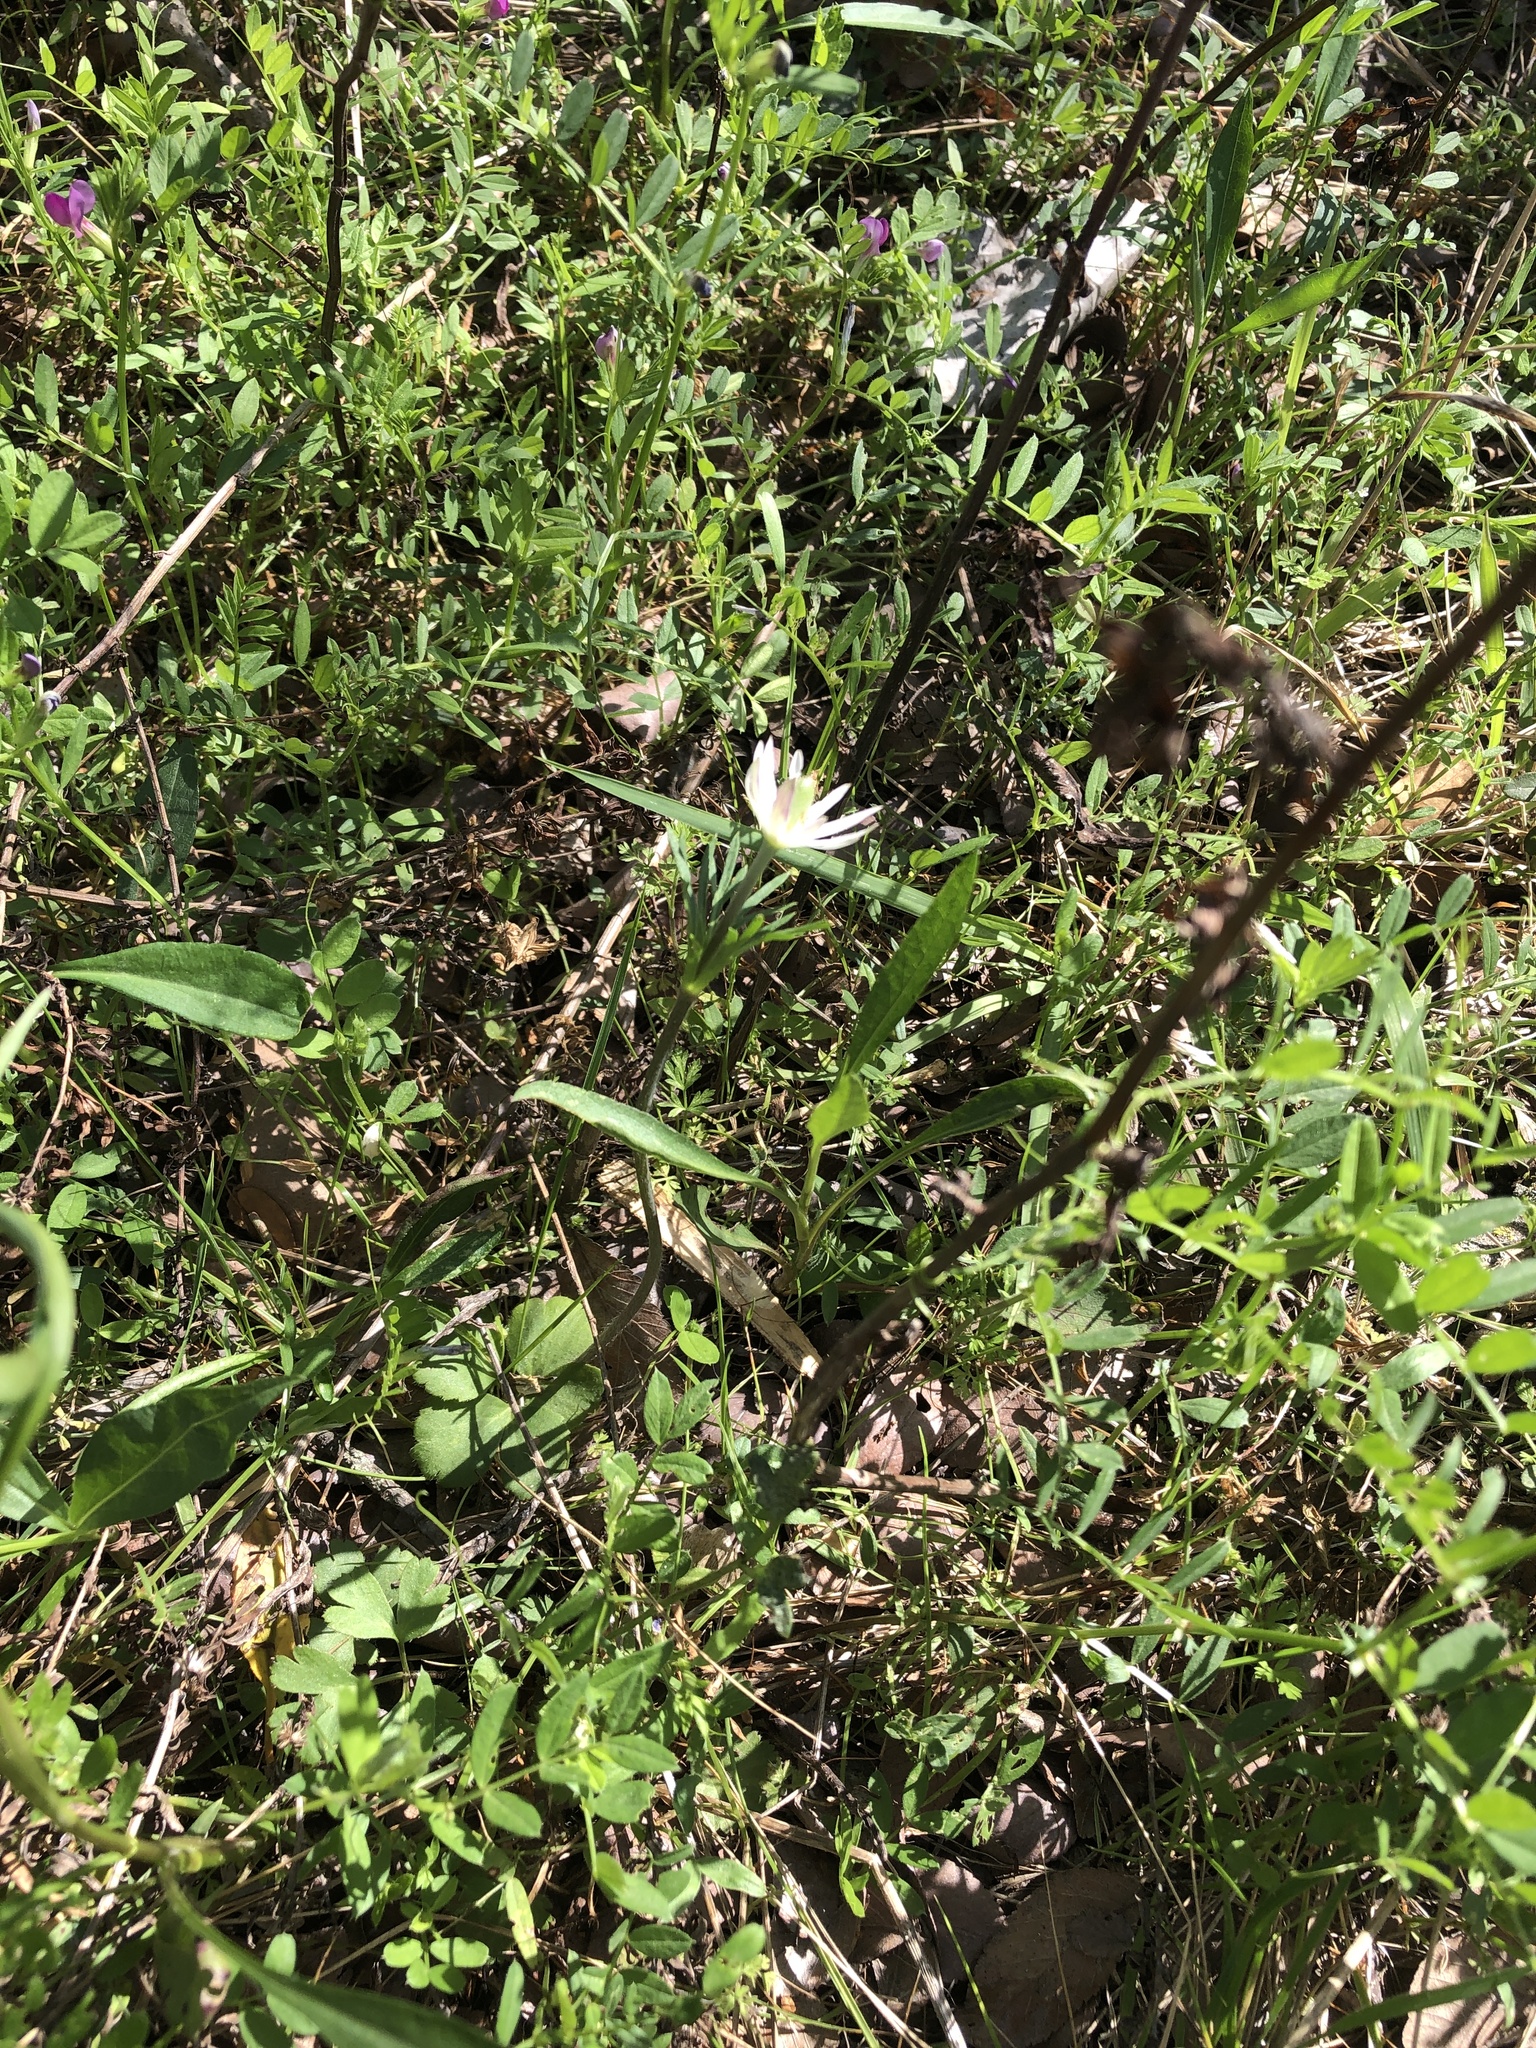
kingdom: Plantae
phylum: Tracheophyta
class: Magnoliopsida
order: Ranunculales
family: Ranunculaceae
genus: Anemone
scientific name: Anemone berlandieri
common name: Ten-petal anemone
